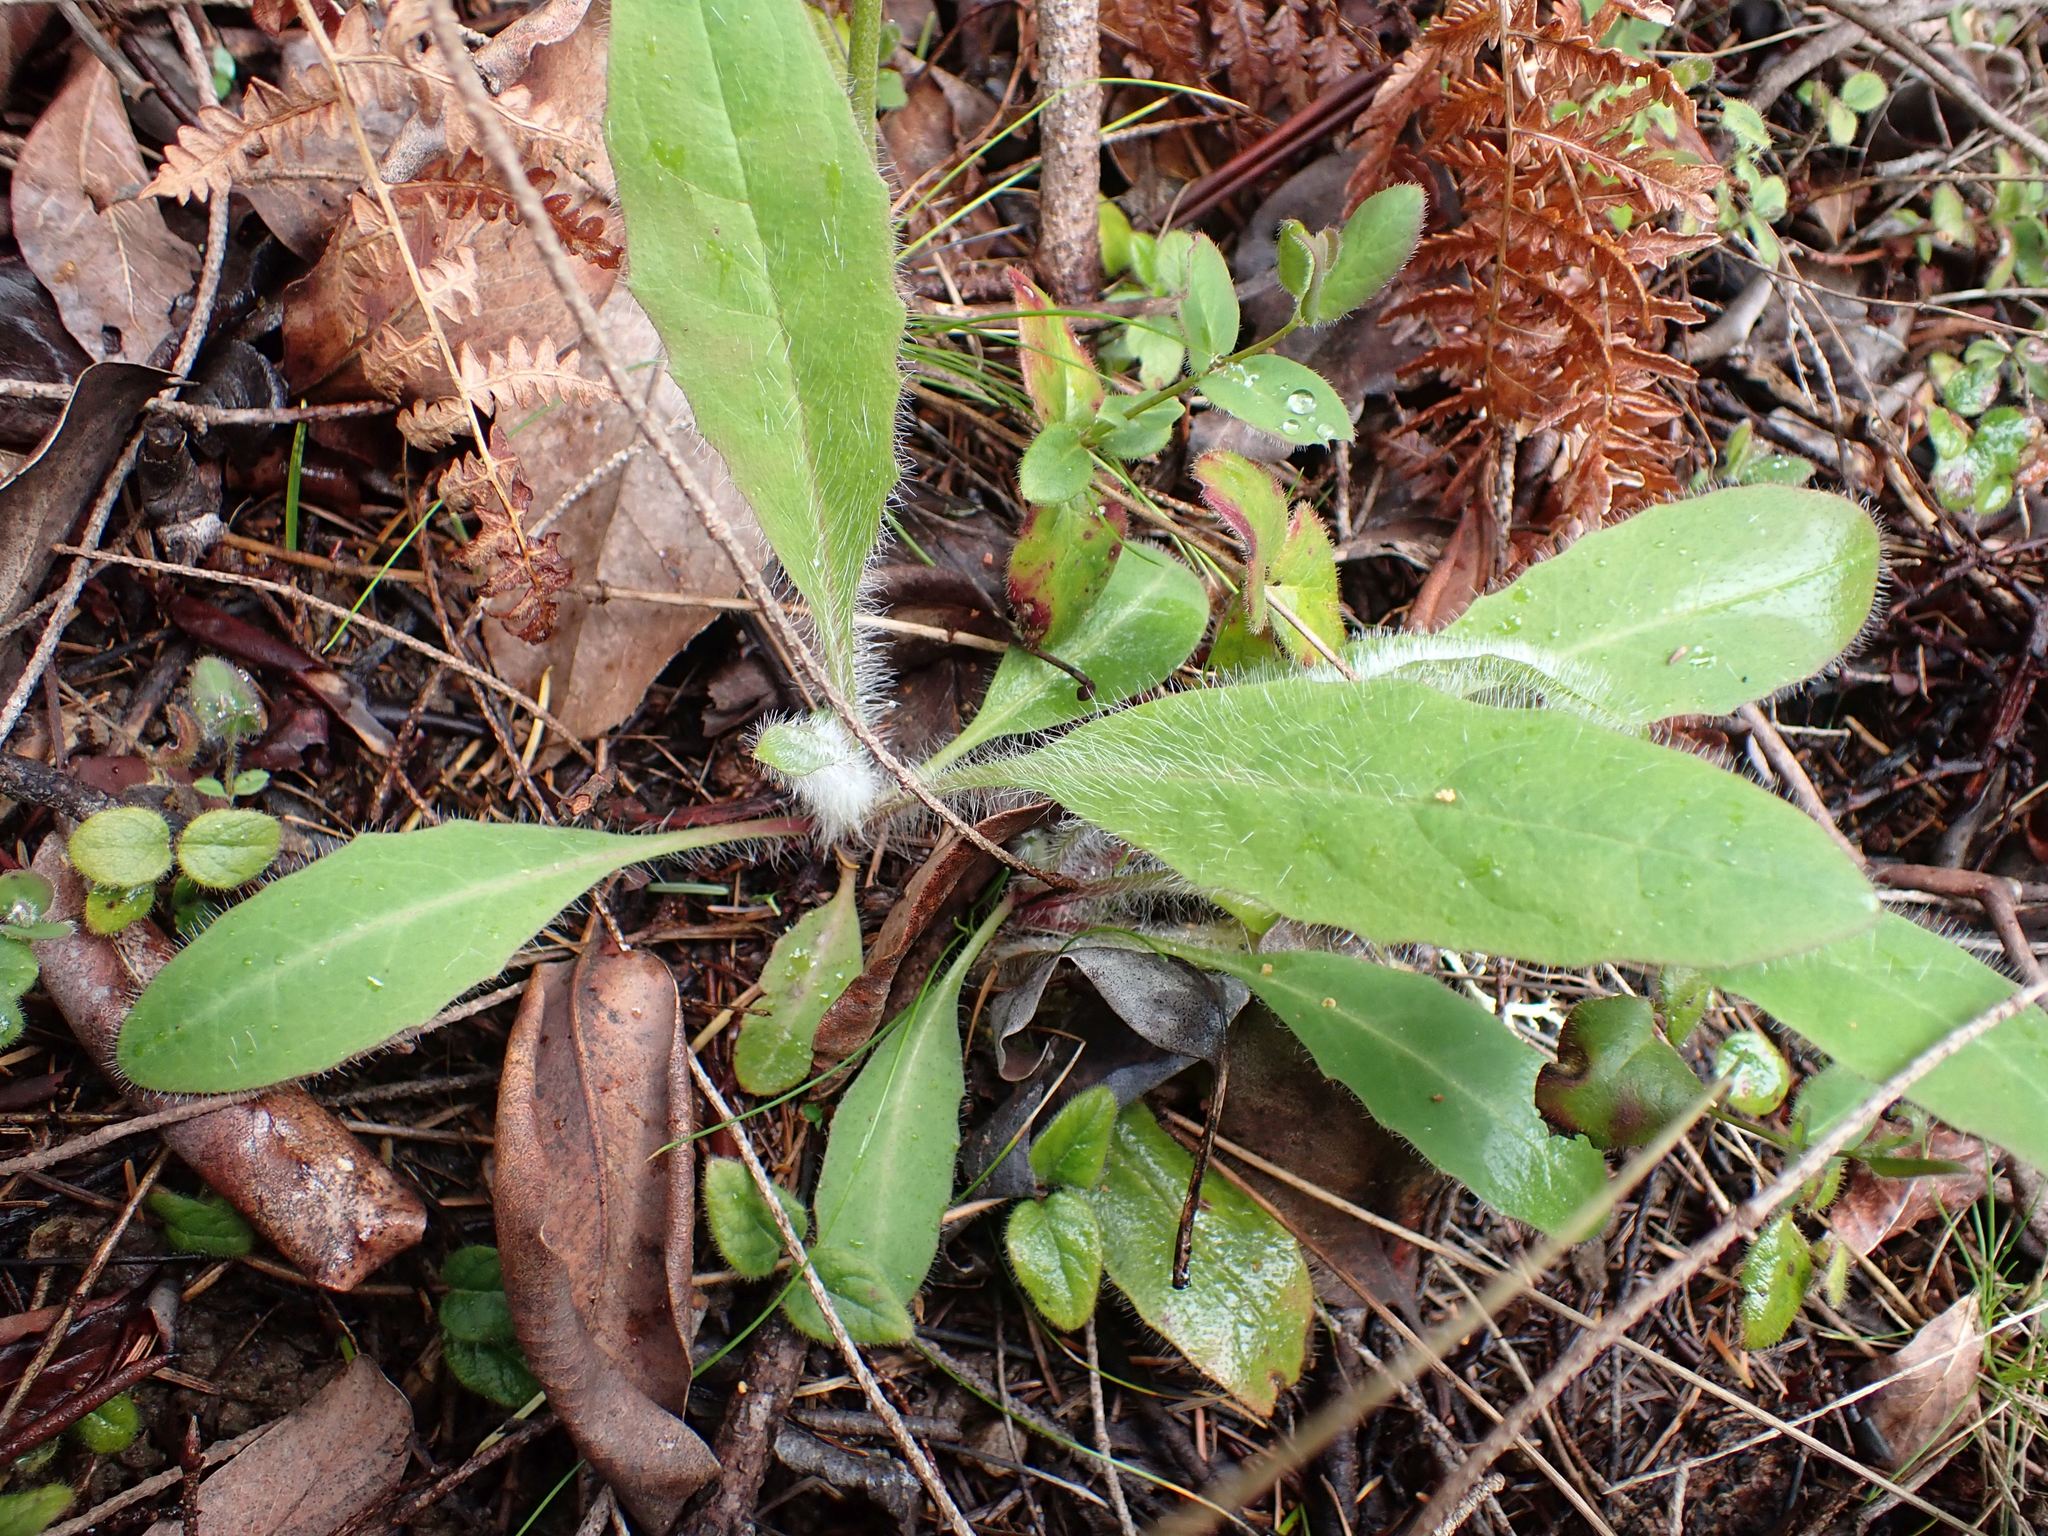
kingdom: Plantae
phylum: Tracheophyta
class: Magnoliopsida
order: Asterales
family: Asteraceae
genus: Hieracium
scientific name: Hieracium albiflorum
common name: White hawkweed
